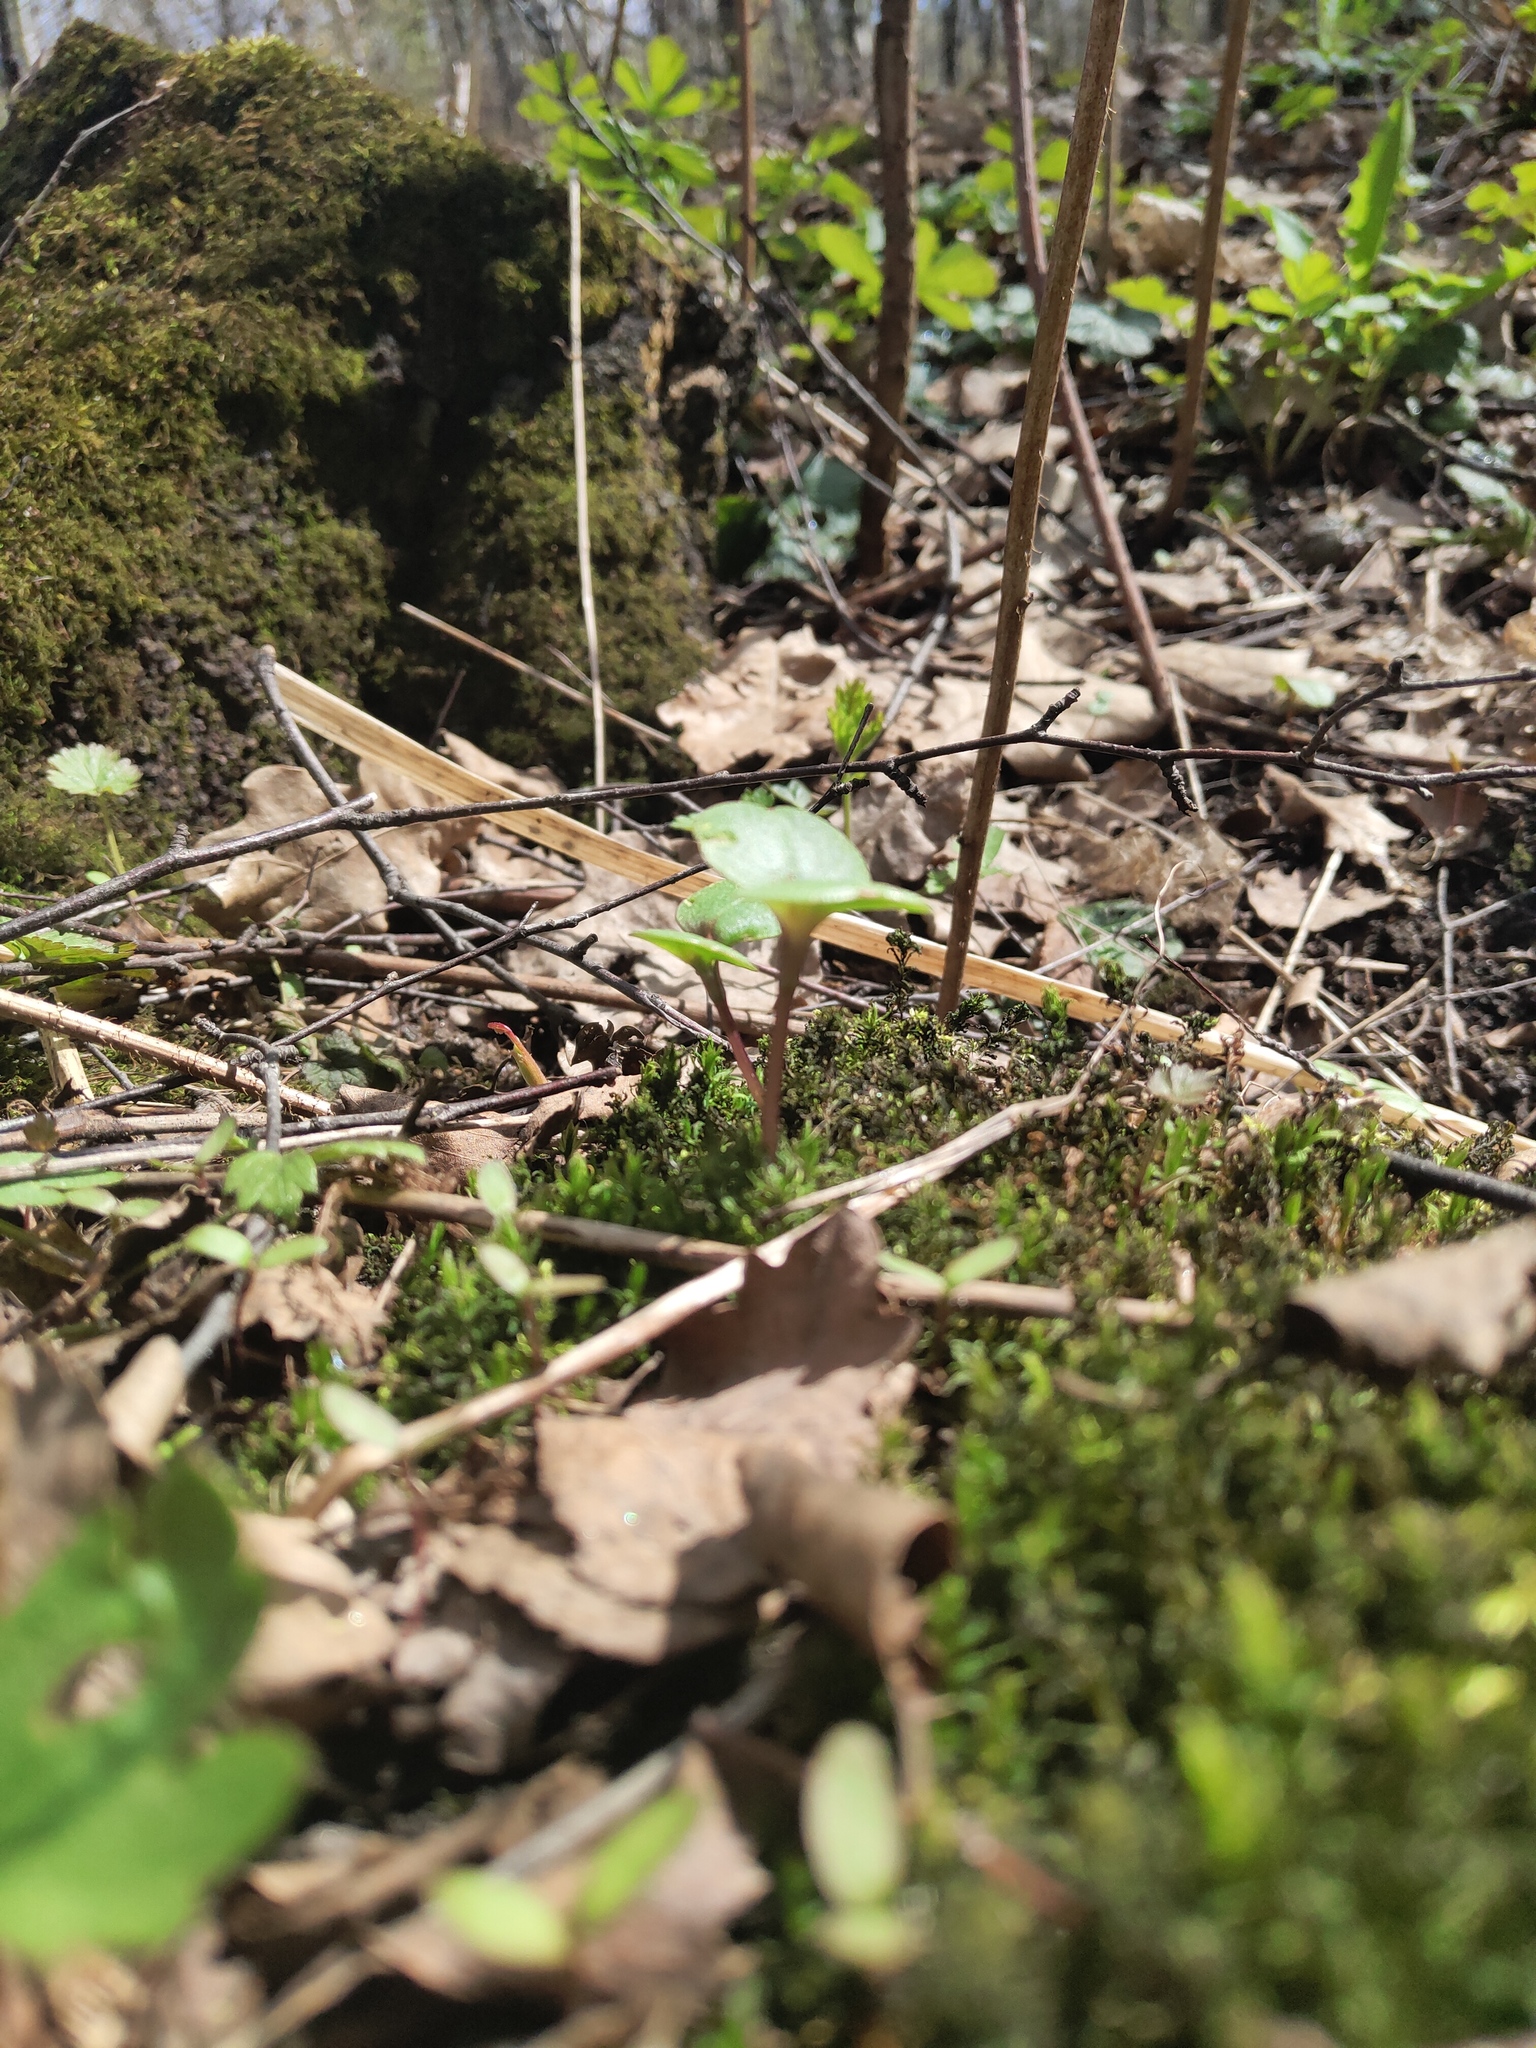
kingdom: Plantae
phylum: Tracheophyta
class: Magnoliopsida
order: Ericales
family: Balsaminaceae
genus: Impatiens
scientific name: Impatiens glandulifera
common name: Himalayan balsam
